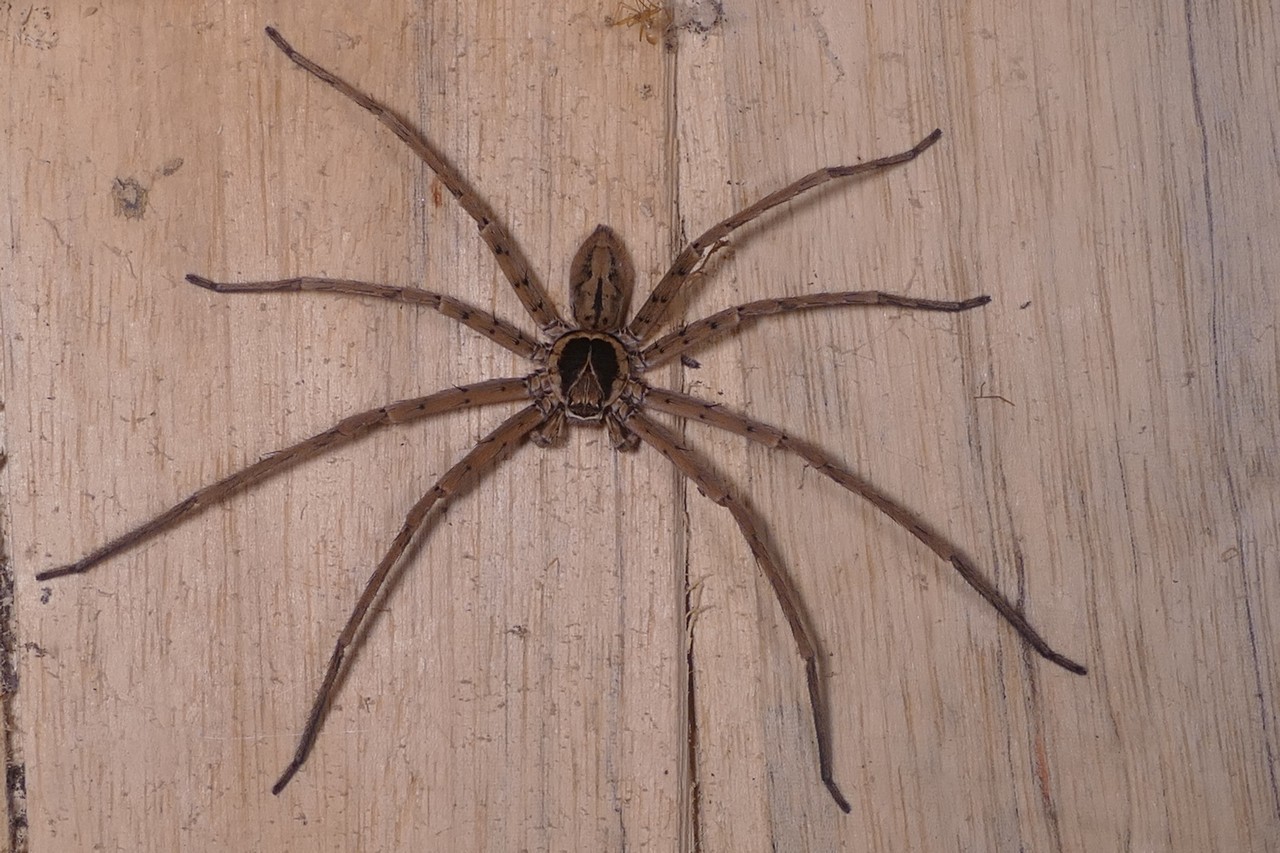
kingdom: Animalia
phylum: Arthropoda
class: Arachnida
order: Araneae
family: Sparassidae
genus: Heteropoda
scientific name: Heteropoda venatoria
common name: Huntsman spider
